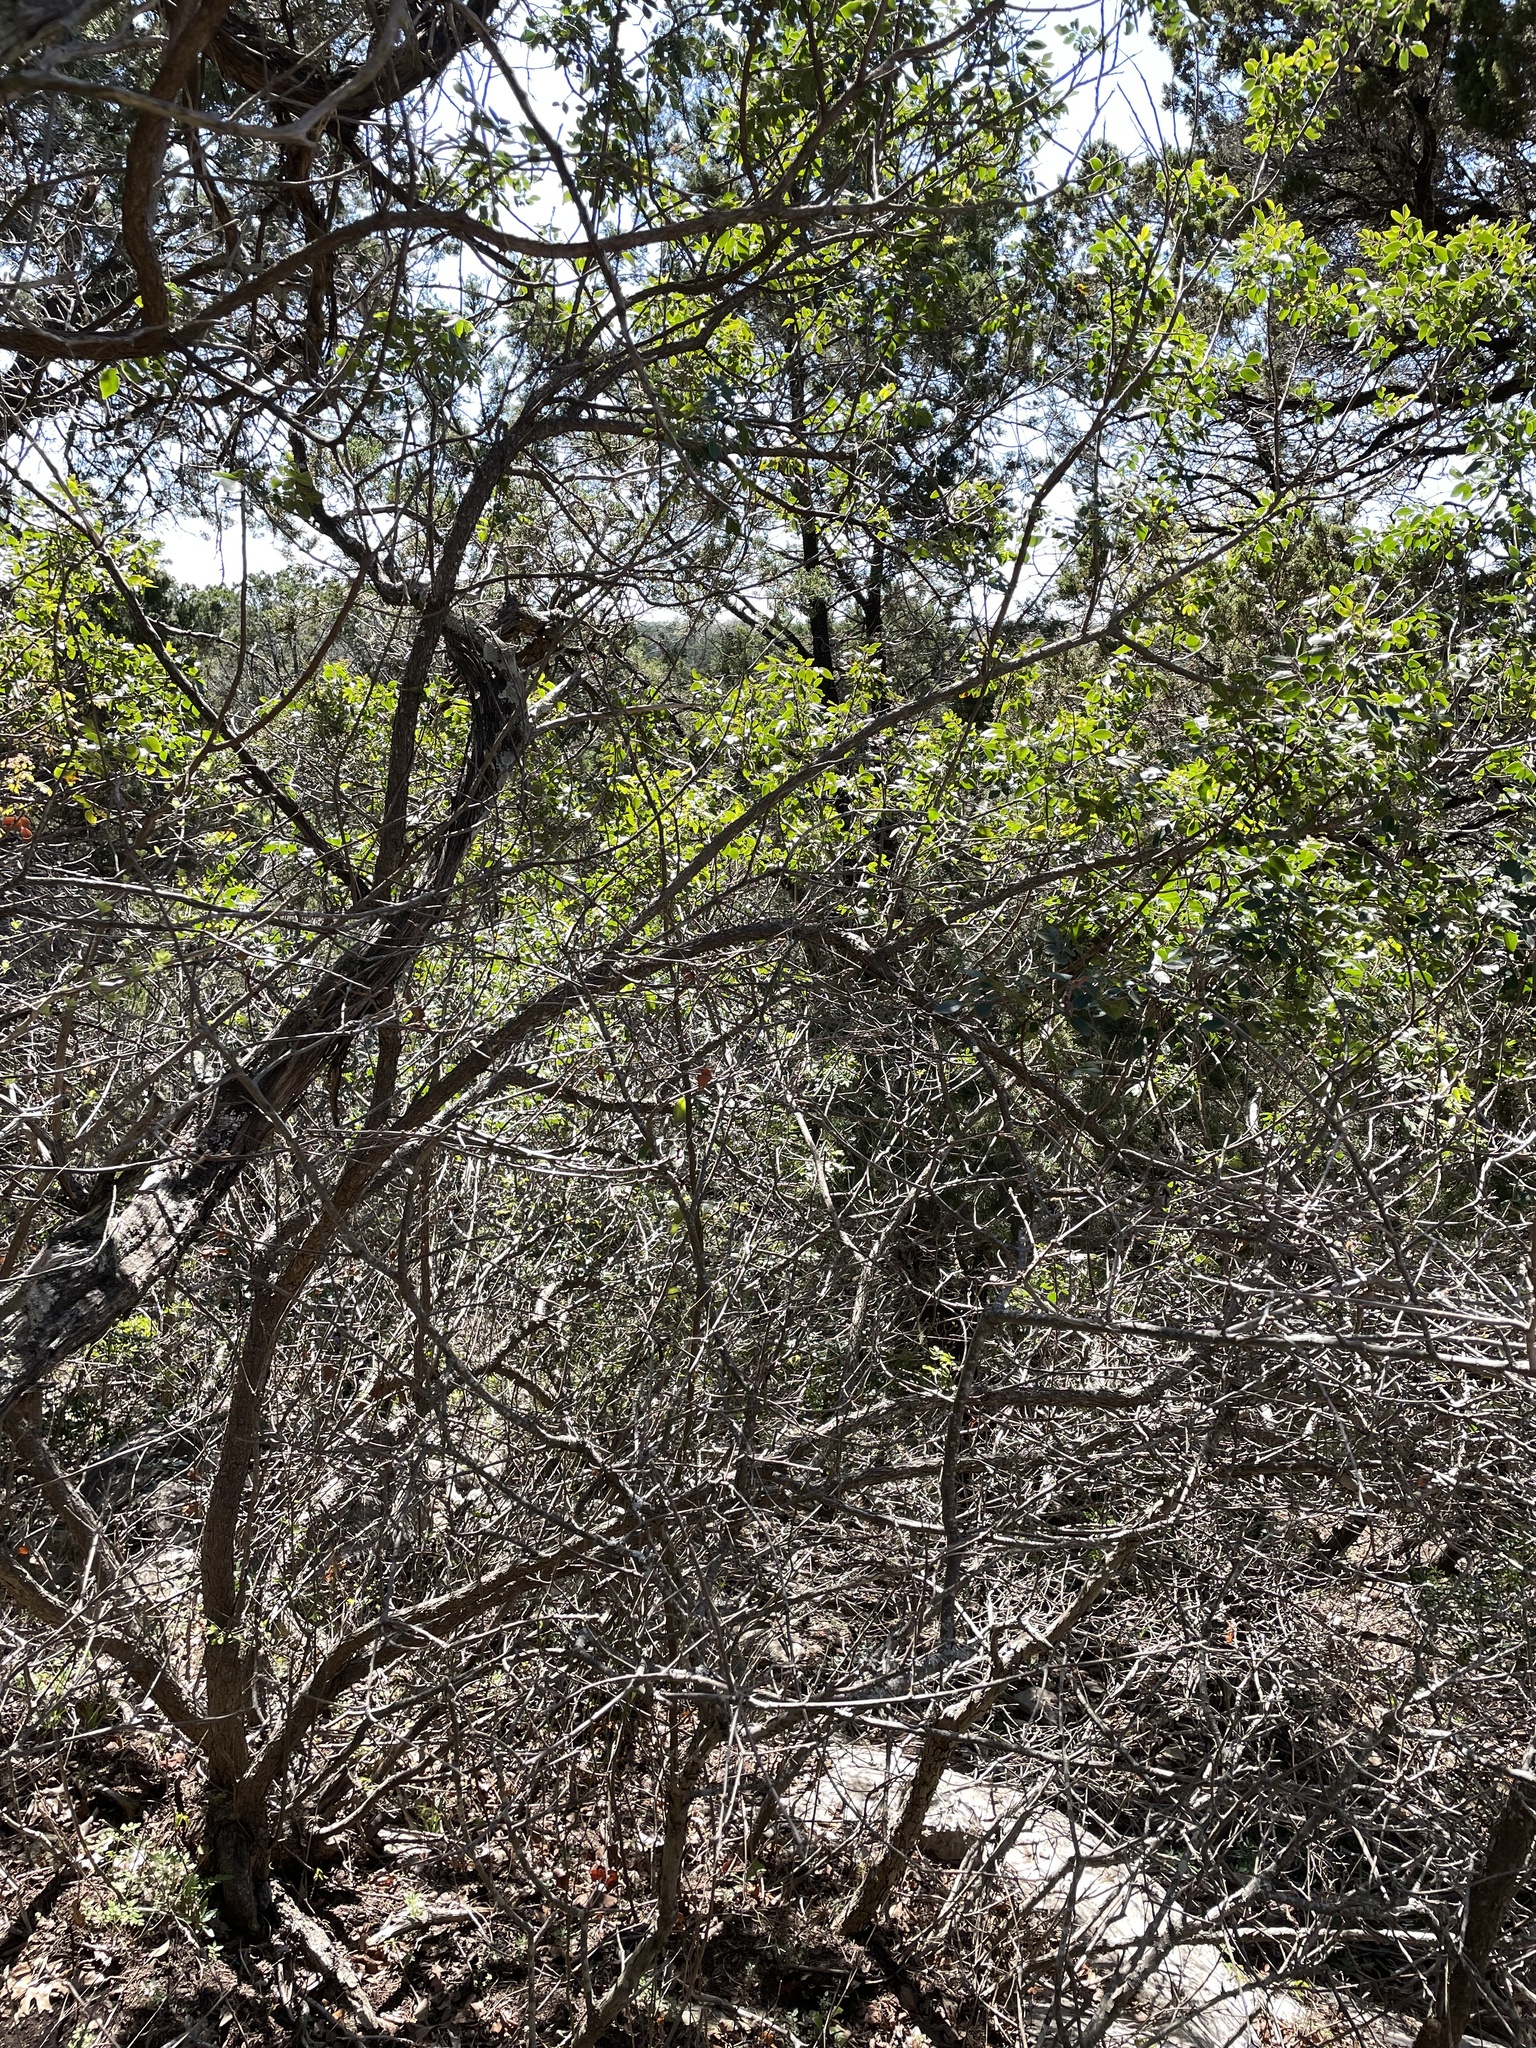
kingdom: Plantae
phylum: Tracheophyta
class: Magnoliopsida
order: Sapindales
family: Anacardiaceae
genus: Rhus
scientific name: Rhus virens
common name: Evergreen sumac
